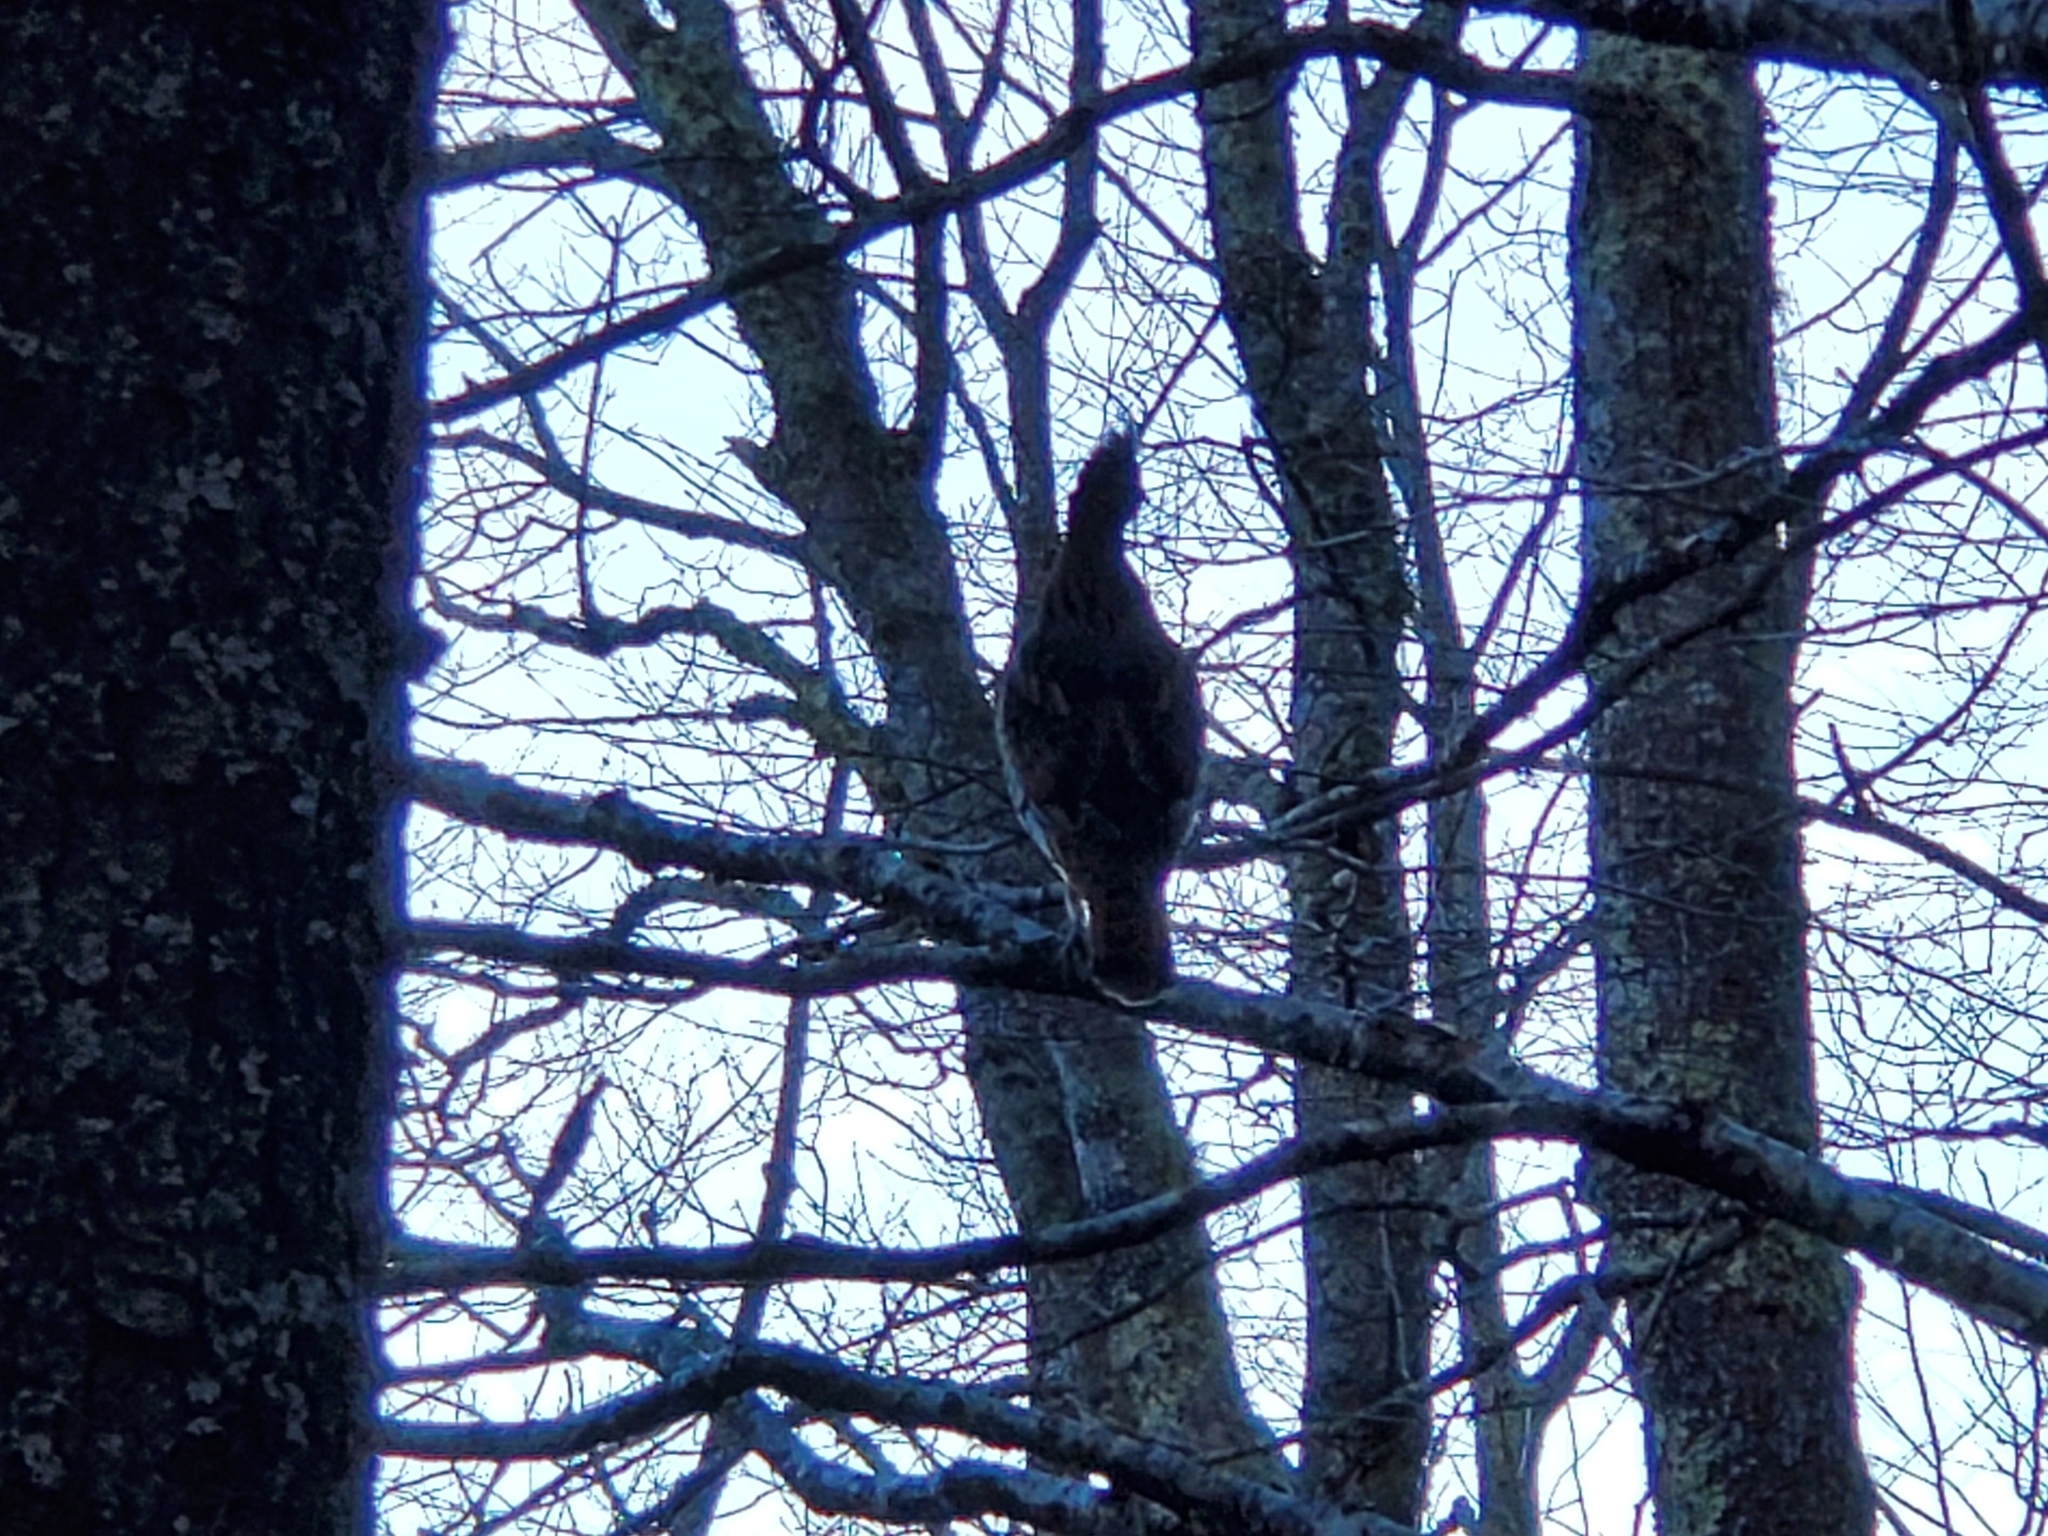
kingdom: Animalia
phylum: Chordata
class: Aves
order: Galliformes
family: Phasianidae
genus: Bonasa
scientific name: Bonasa umbellus
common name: Ruffed grouse
